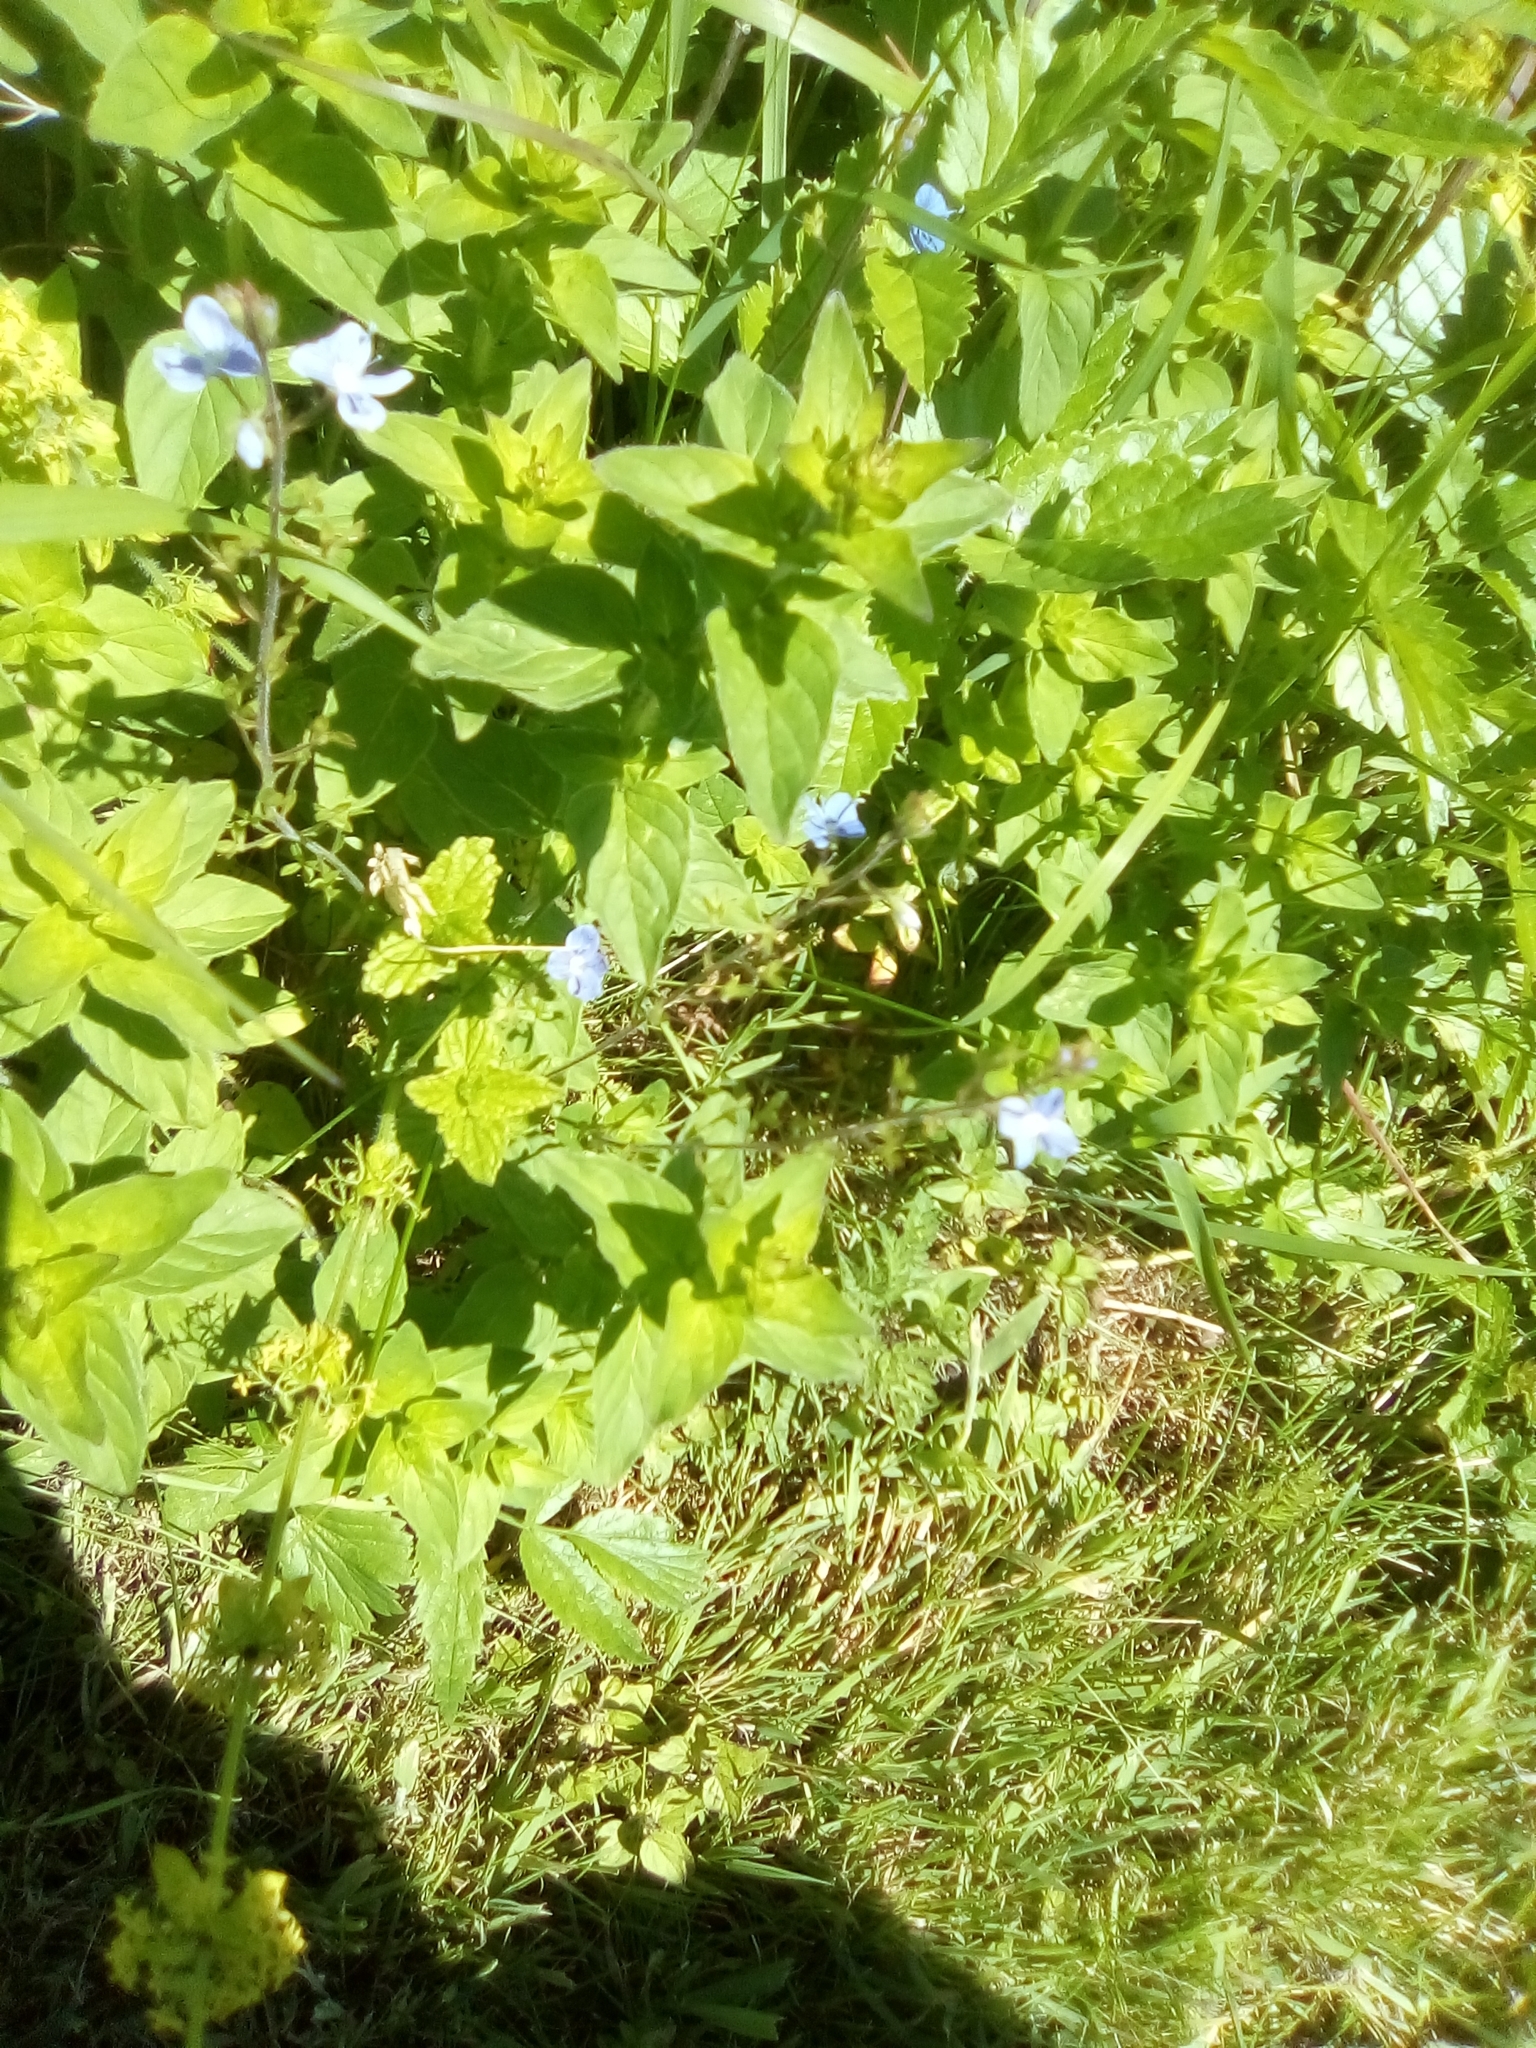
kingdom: Plantae
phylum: Tracheophyta
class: Magnoliopsida
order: Lamiales
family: Plantaginaceae
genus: Veronica
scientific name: Veronica chamaedrys
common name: Germander speedwell
